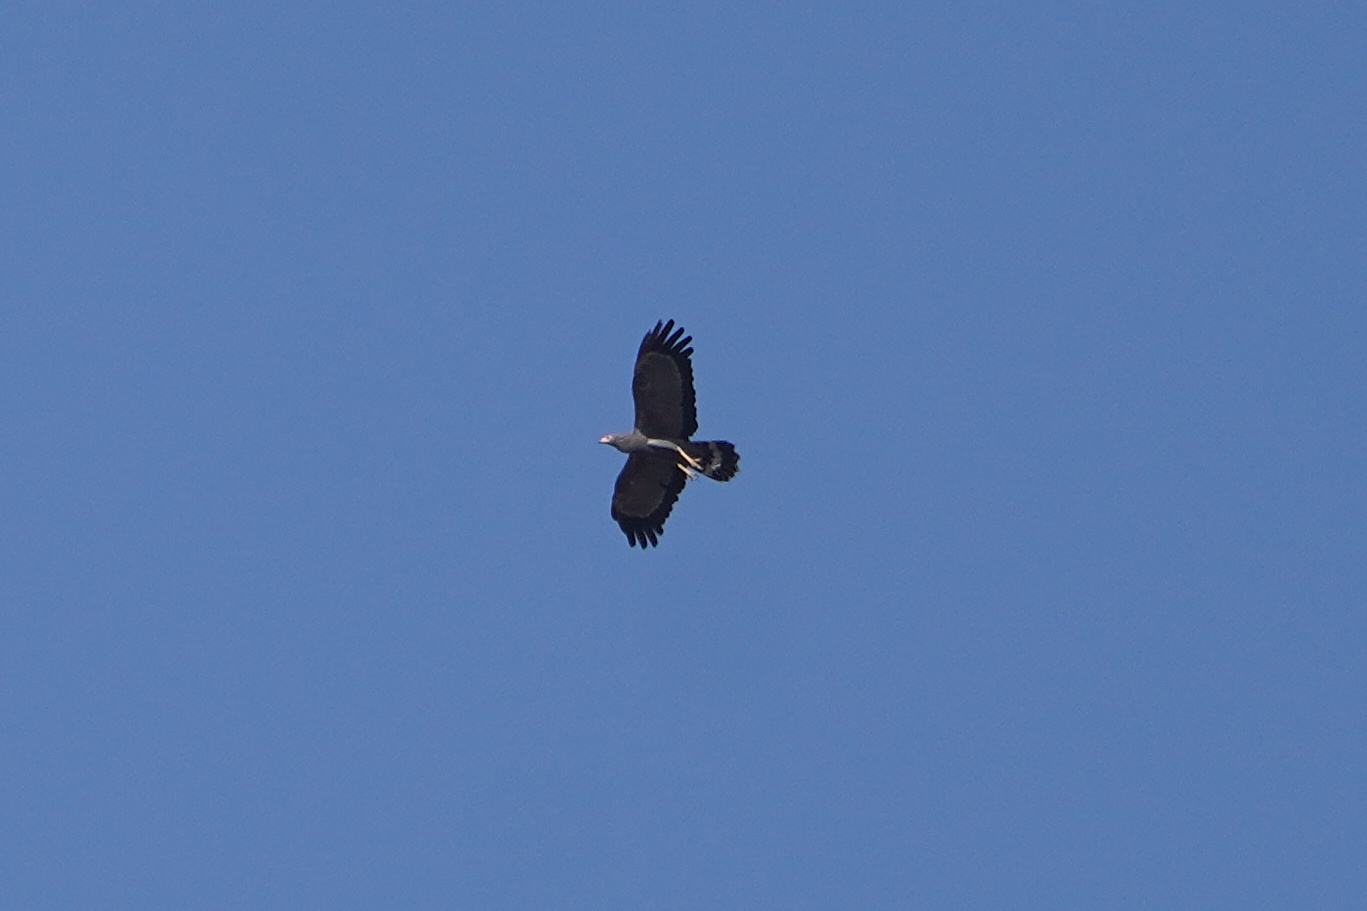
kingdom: Animalia
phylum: Chordata
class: Aves
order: Accipitriformes
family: Accipitridae
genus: Polyboroides
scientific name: Polyboroides typus
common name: African harrier-hawk
